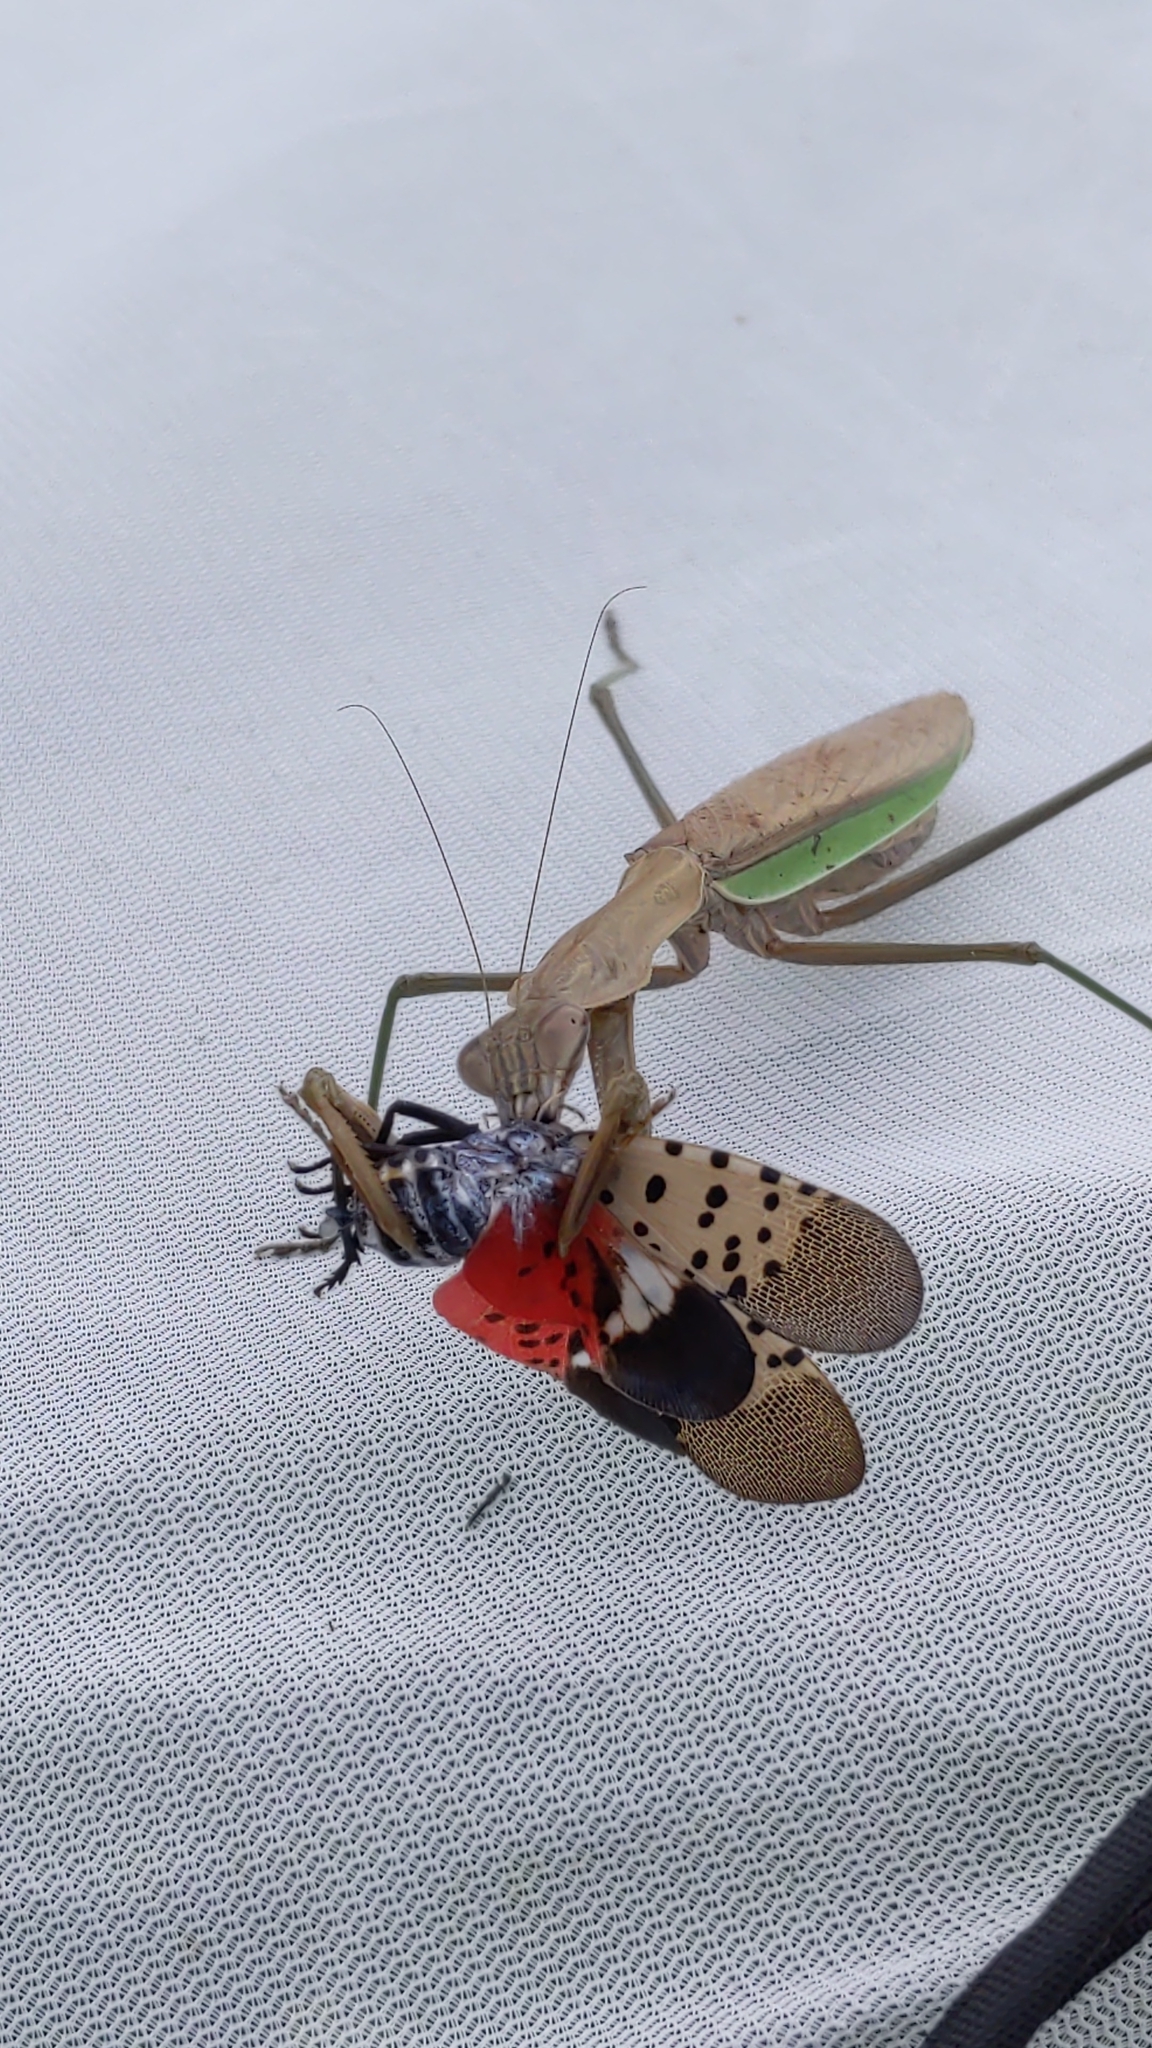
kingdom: Animalia
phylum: Arthropoda
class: Insecta
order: Hemiptera
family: Fulgoridae
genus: Lycorma
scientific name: Lycorma delicatula
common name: Spotted lanternfly
